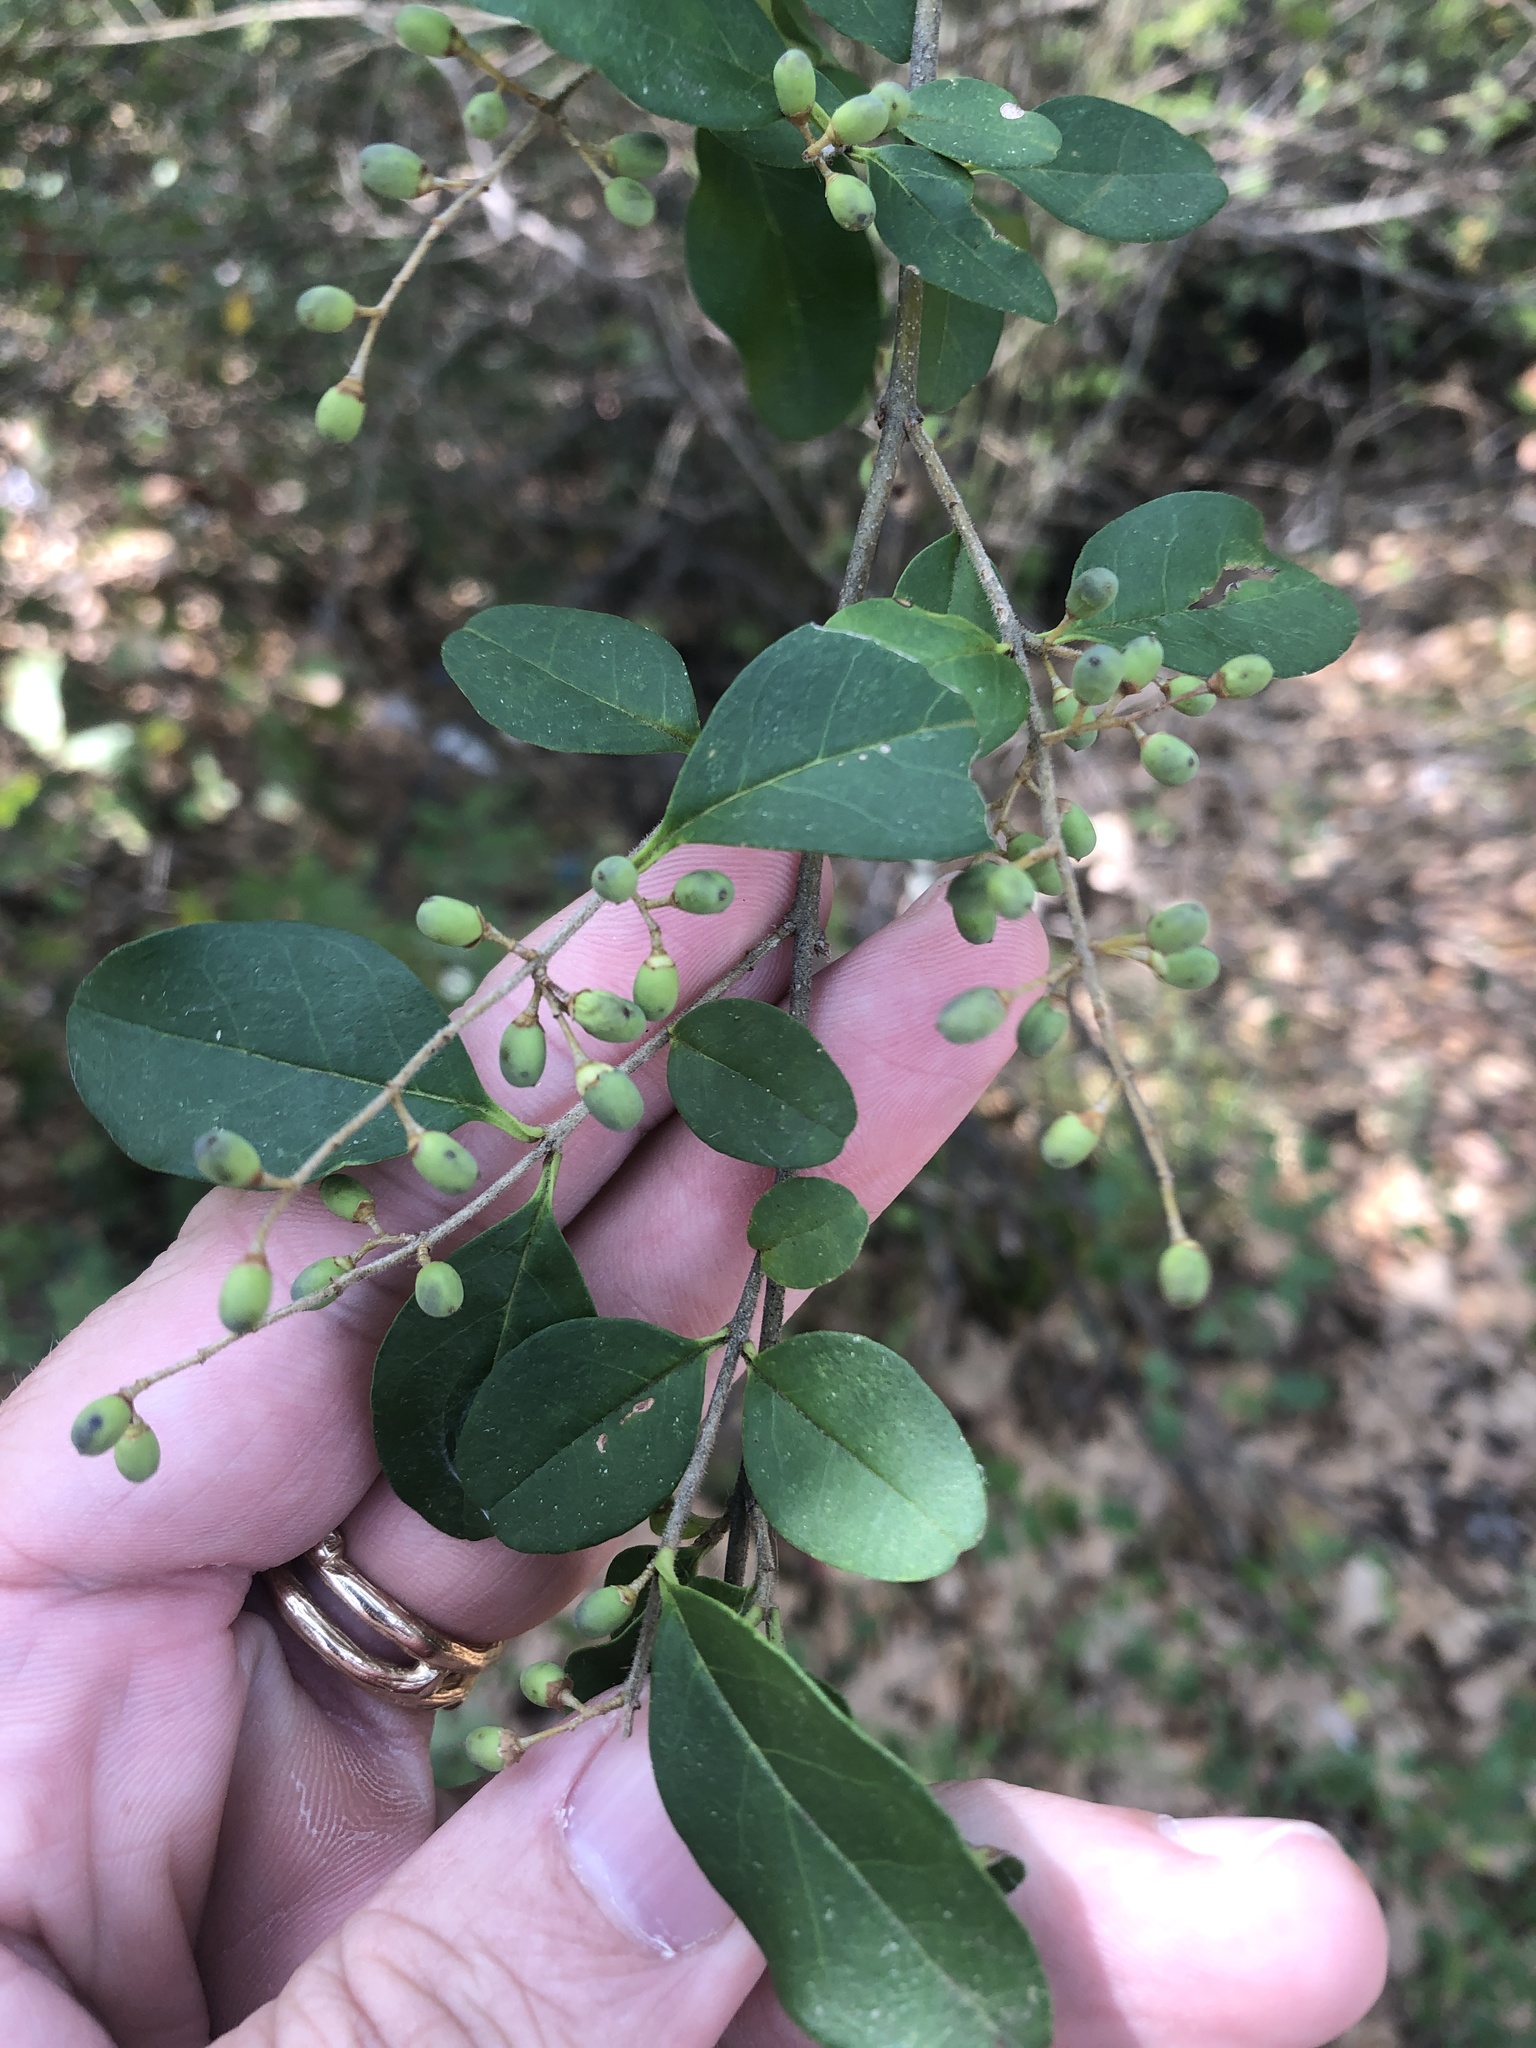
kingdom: Plantae
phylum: Tracheophyta
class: Magnoliopsida
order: Lamiales
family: Oleaceae
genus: Ligustrum
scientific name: Ligustrum sinense
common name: Chinese privet
